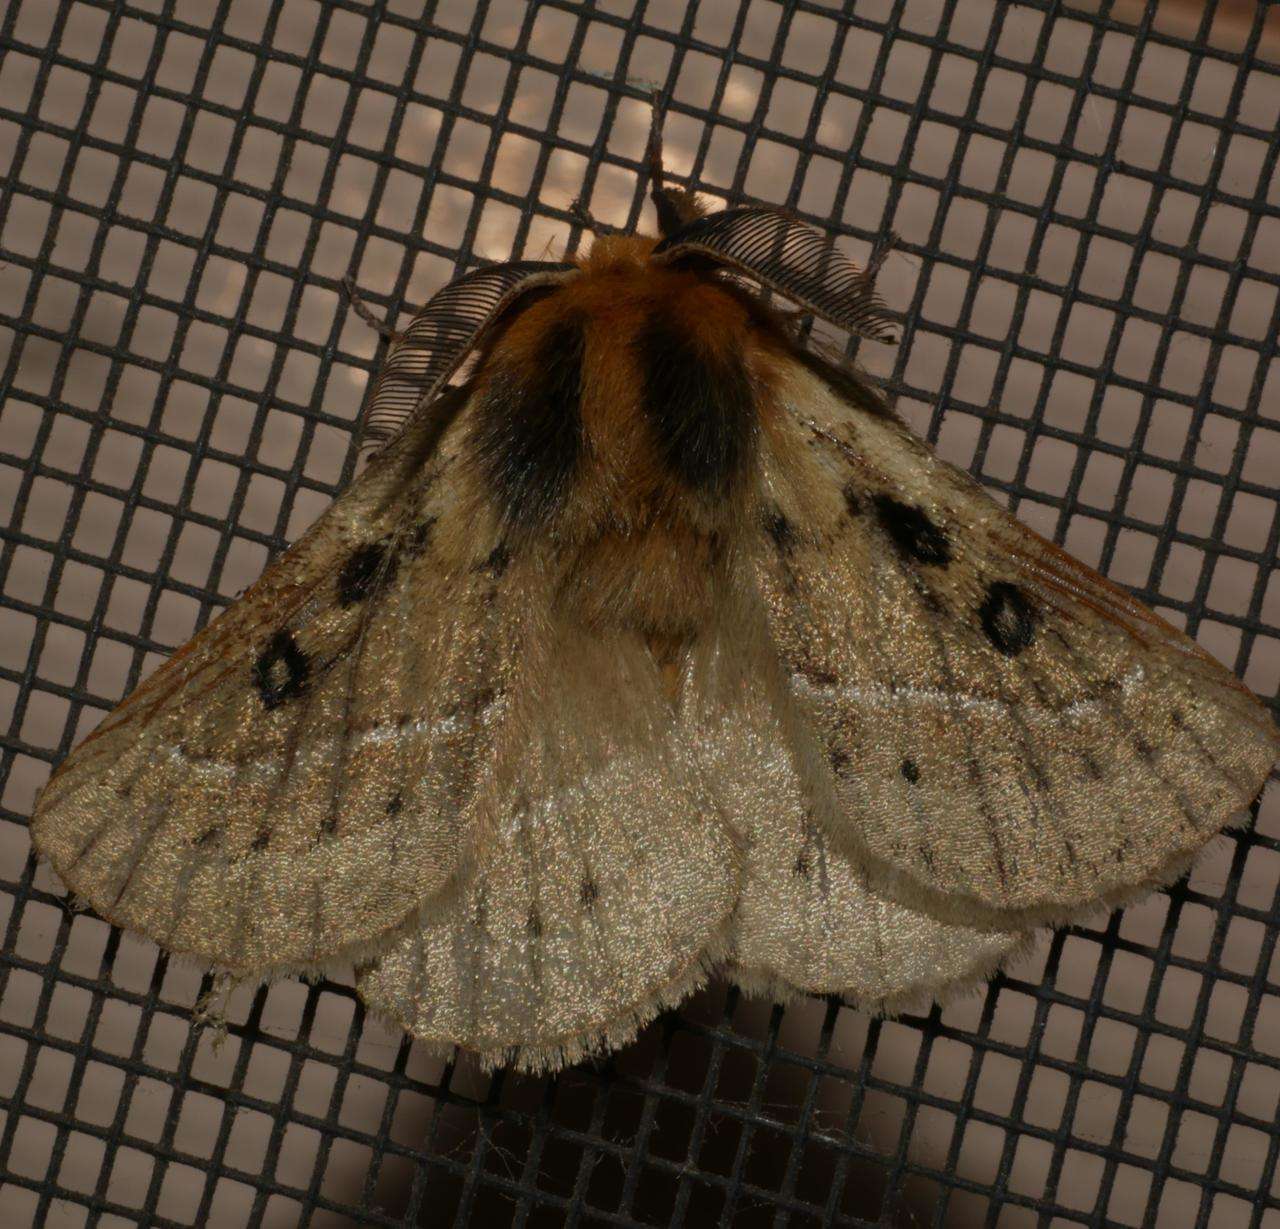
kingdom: Animalia
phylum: Arthropoda
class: Insecta
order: Lepidoptera
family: Anthelidae
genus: Anthela
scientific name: Anthela ocellata
